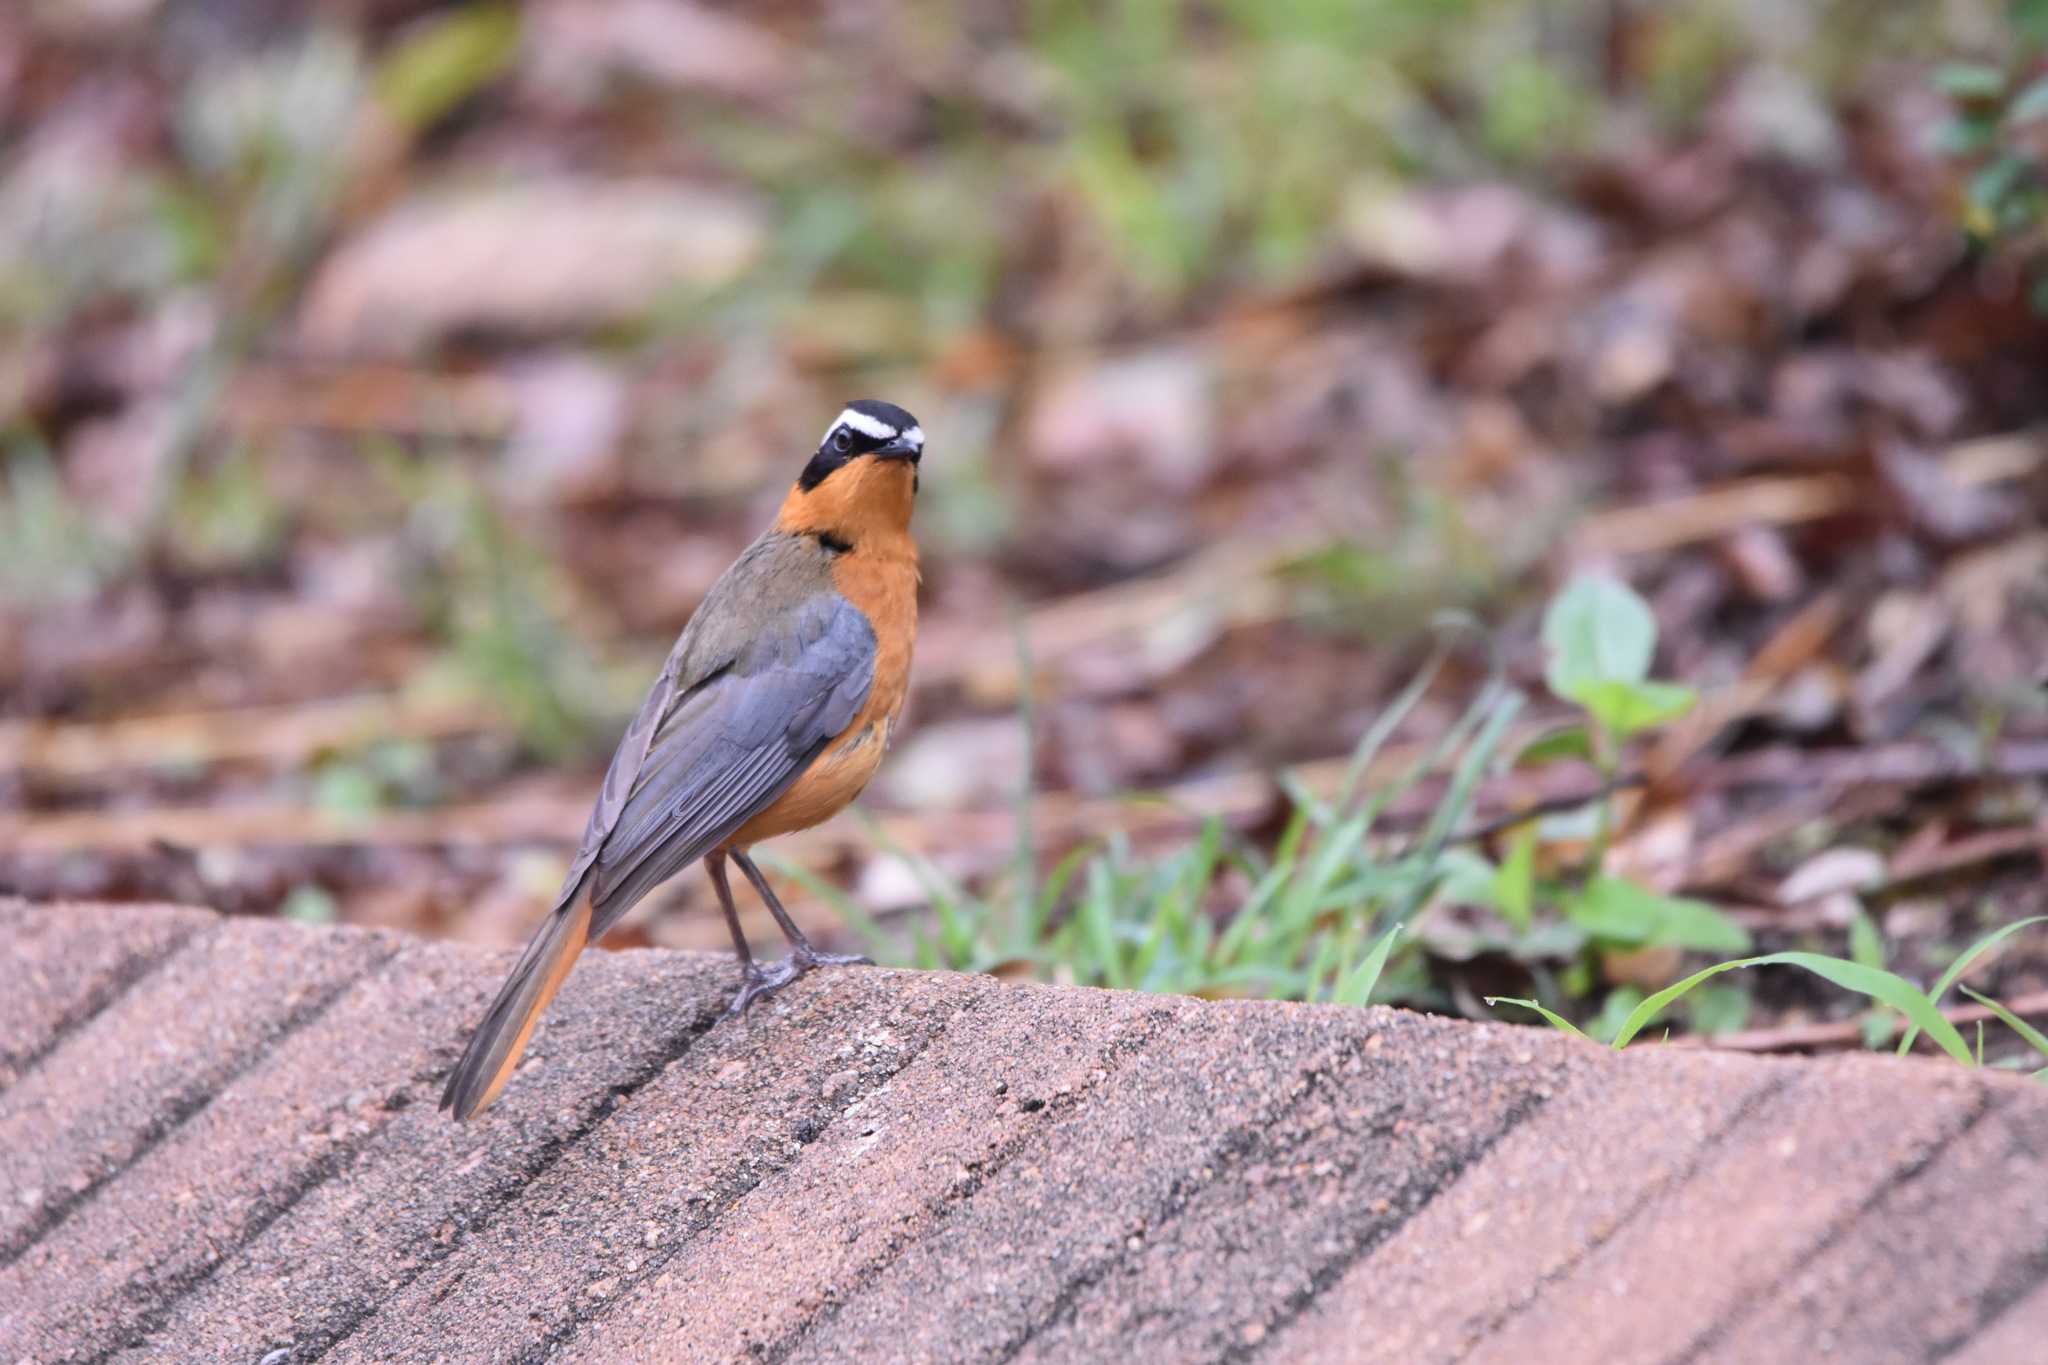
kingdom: Animalia
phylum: Chordata
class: Aves
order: Passeriformes
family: Muscicapidae
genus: Cossypha
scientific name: Cossypha heuglini
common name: White-browed robin-chat
